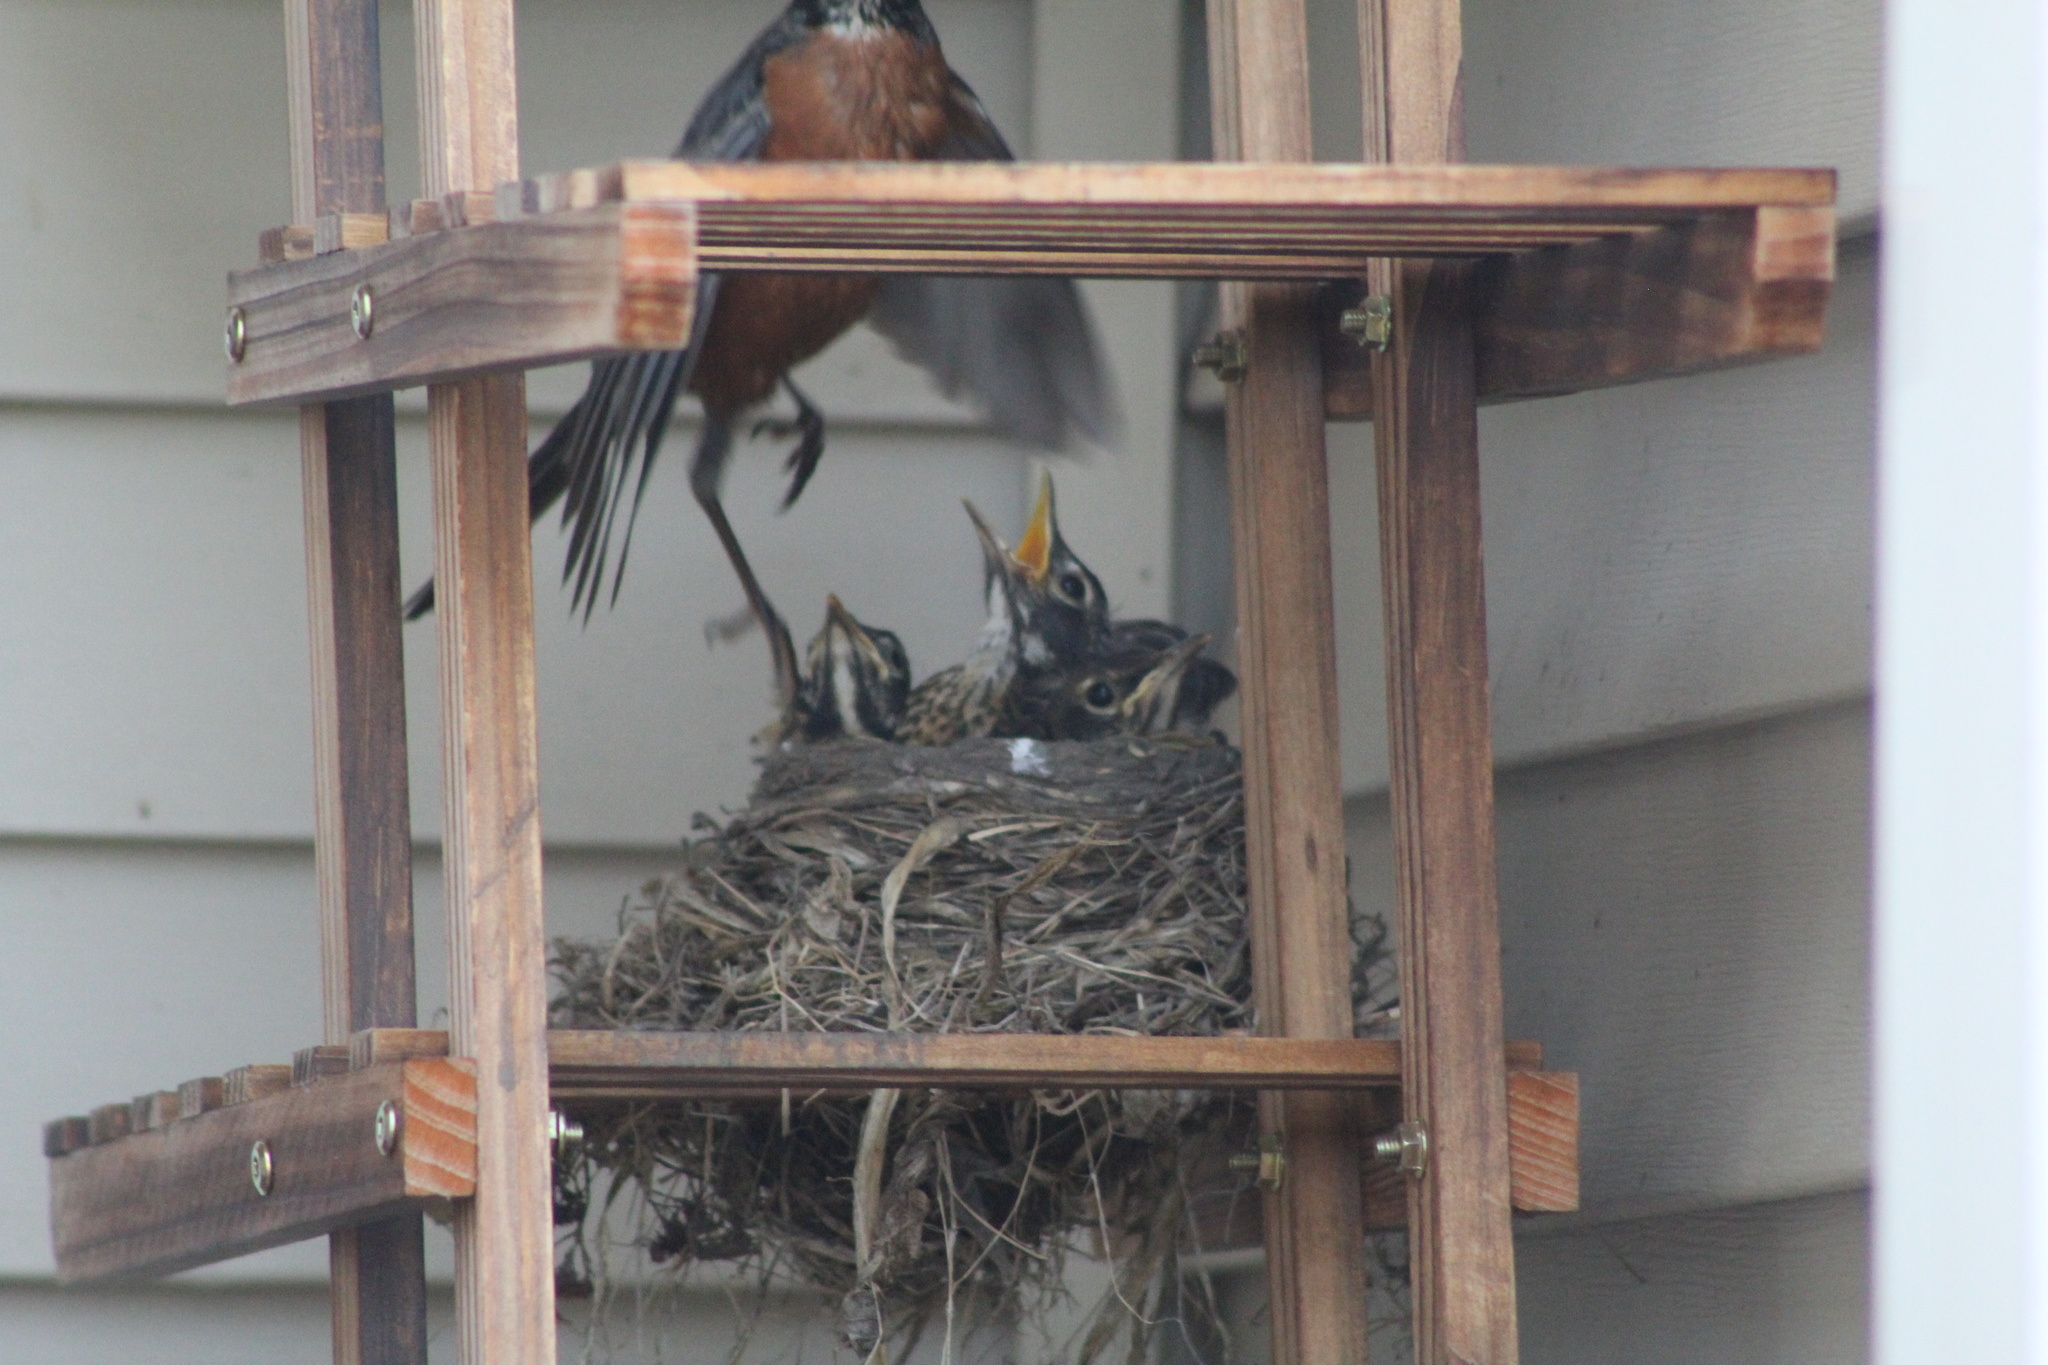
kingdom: Animalia
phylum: Chordata
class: Aves
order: Passeriformes
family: Turdidae
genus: Turdus
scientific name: Turdus migratorius
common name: American robin
